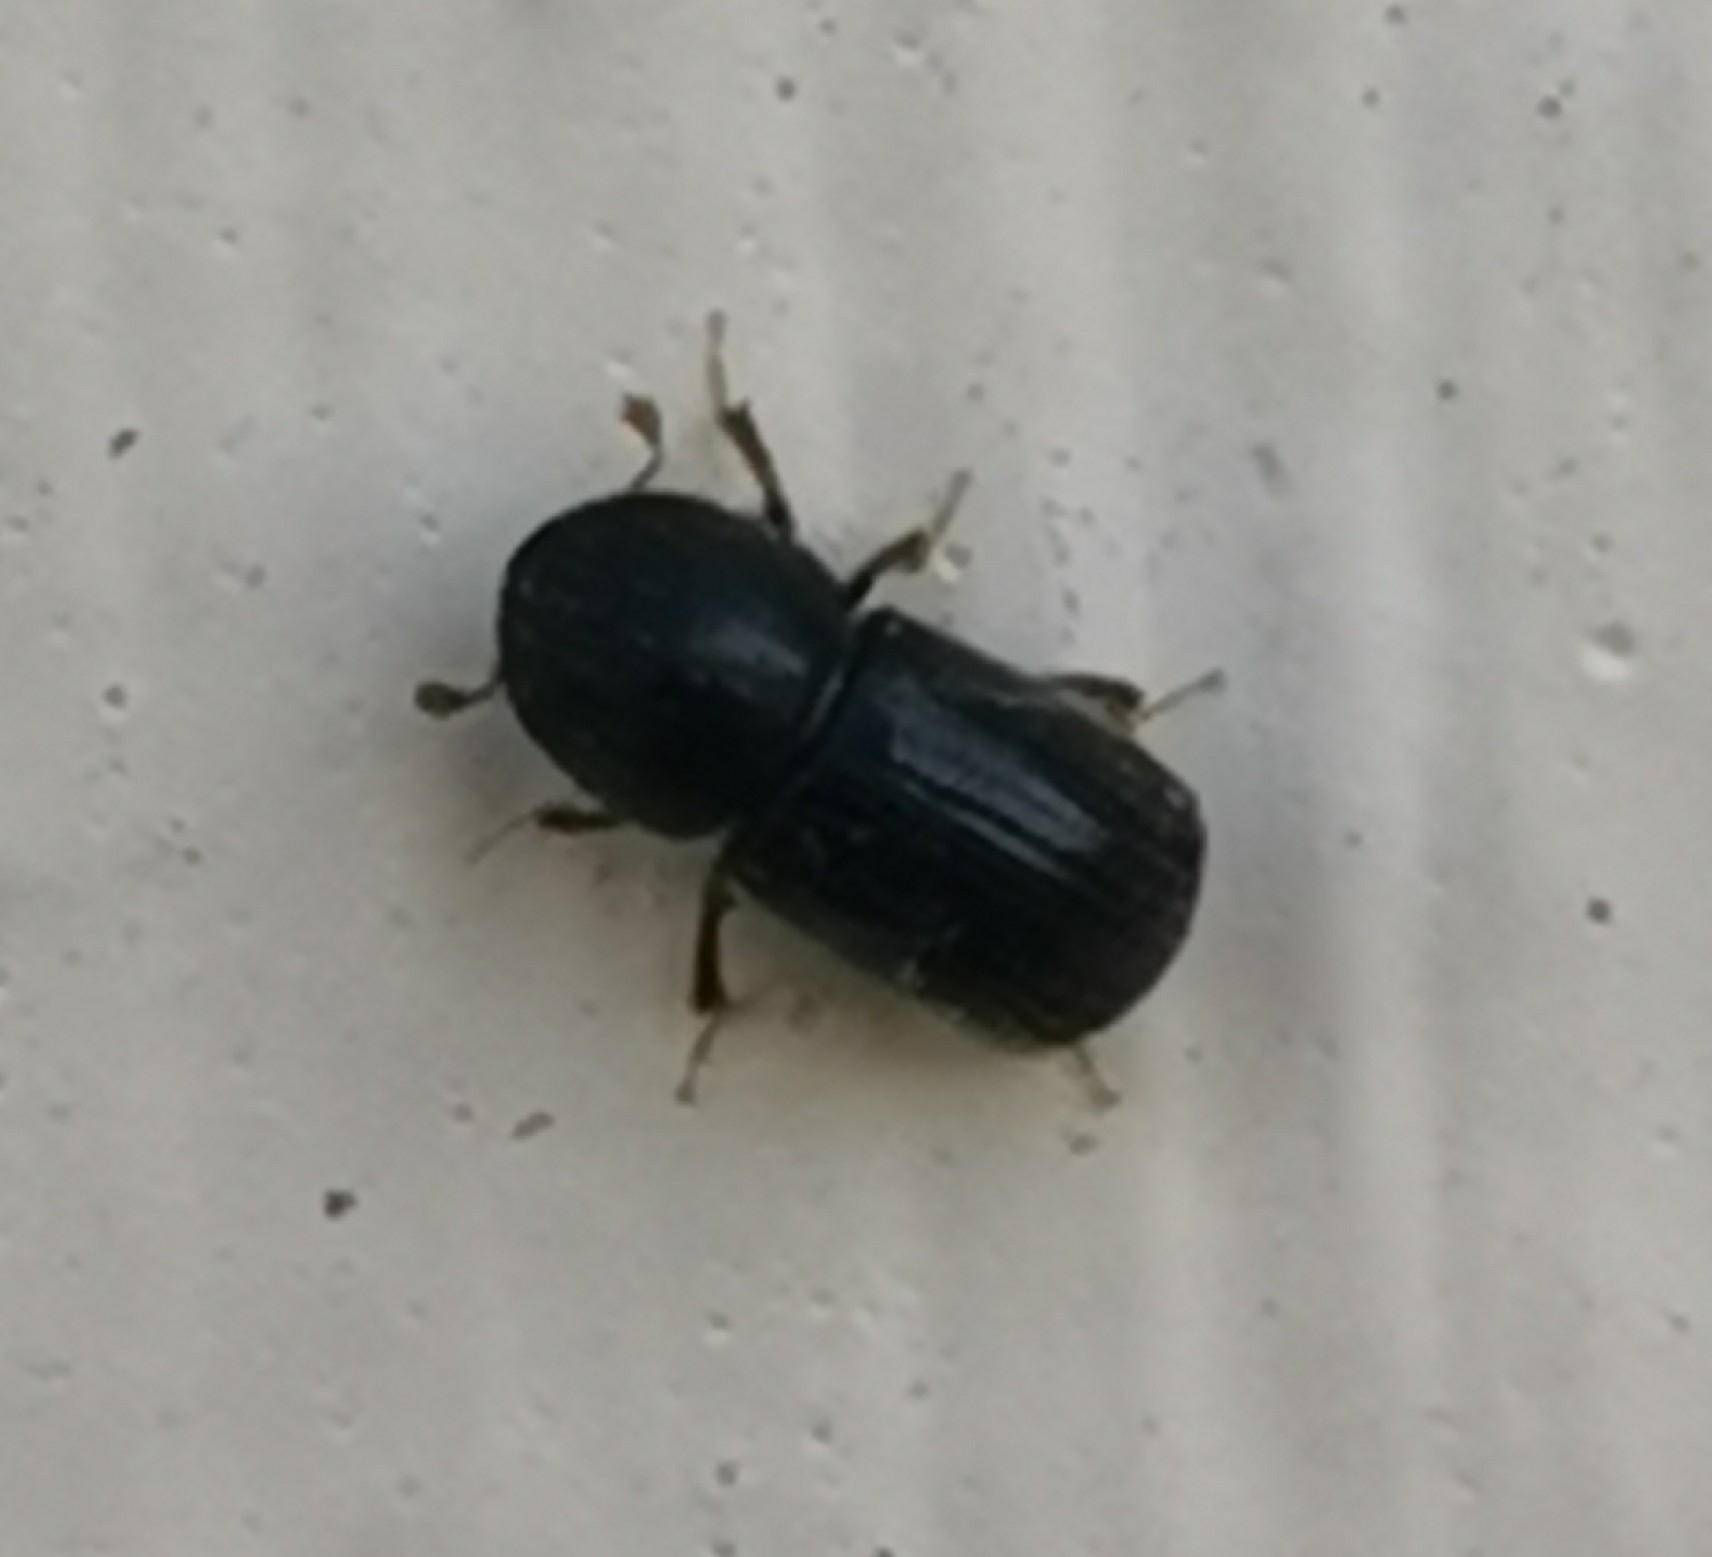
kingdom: Animalia
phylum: Arthropoda
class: Insecta
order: Coleoptera
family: Curculionidae
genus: Anisandrus
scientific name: Anisandrus dispar
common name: European shothole borer
